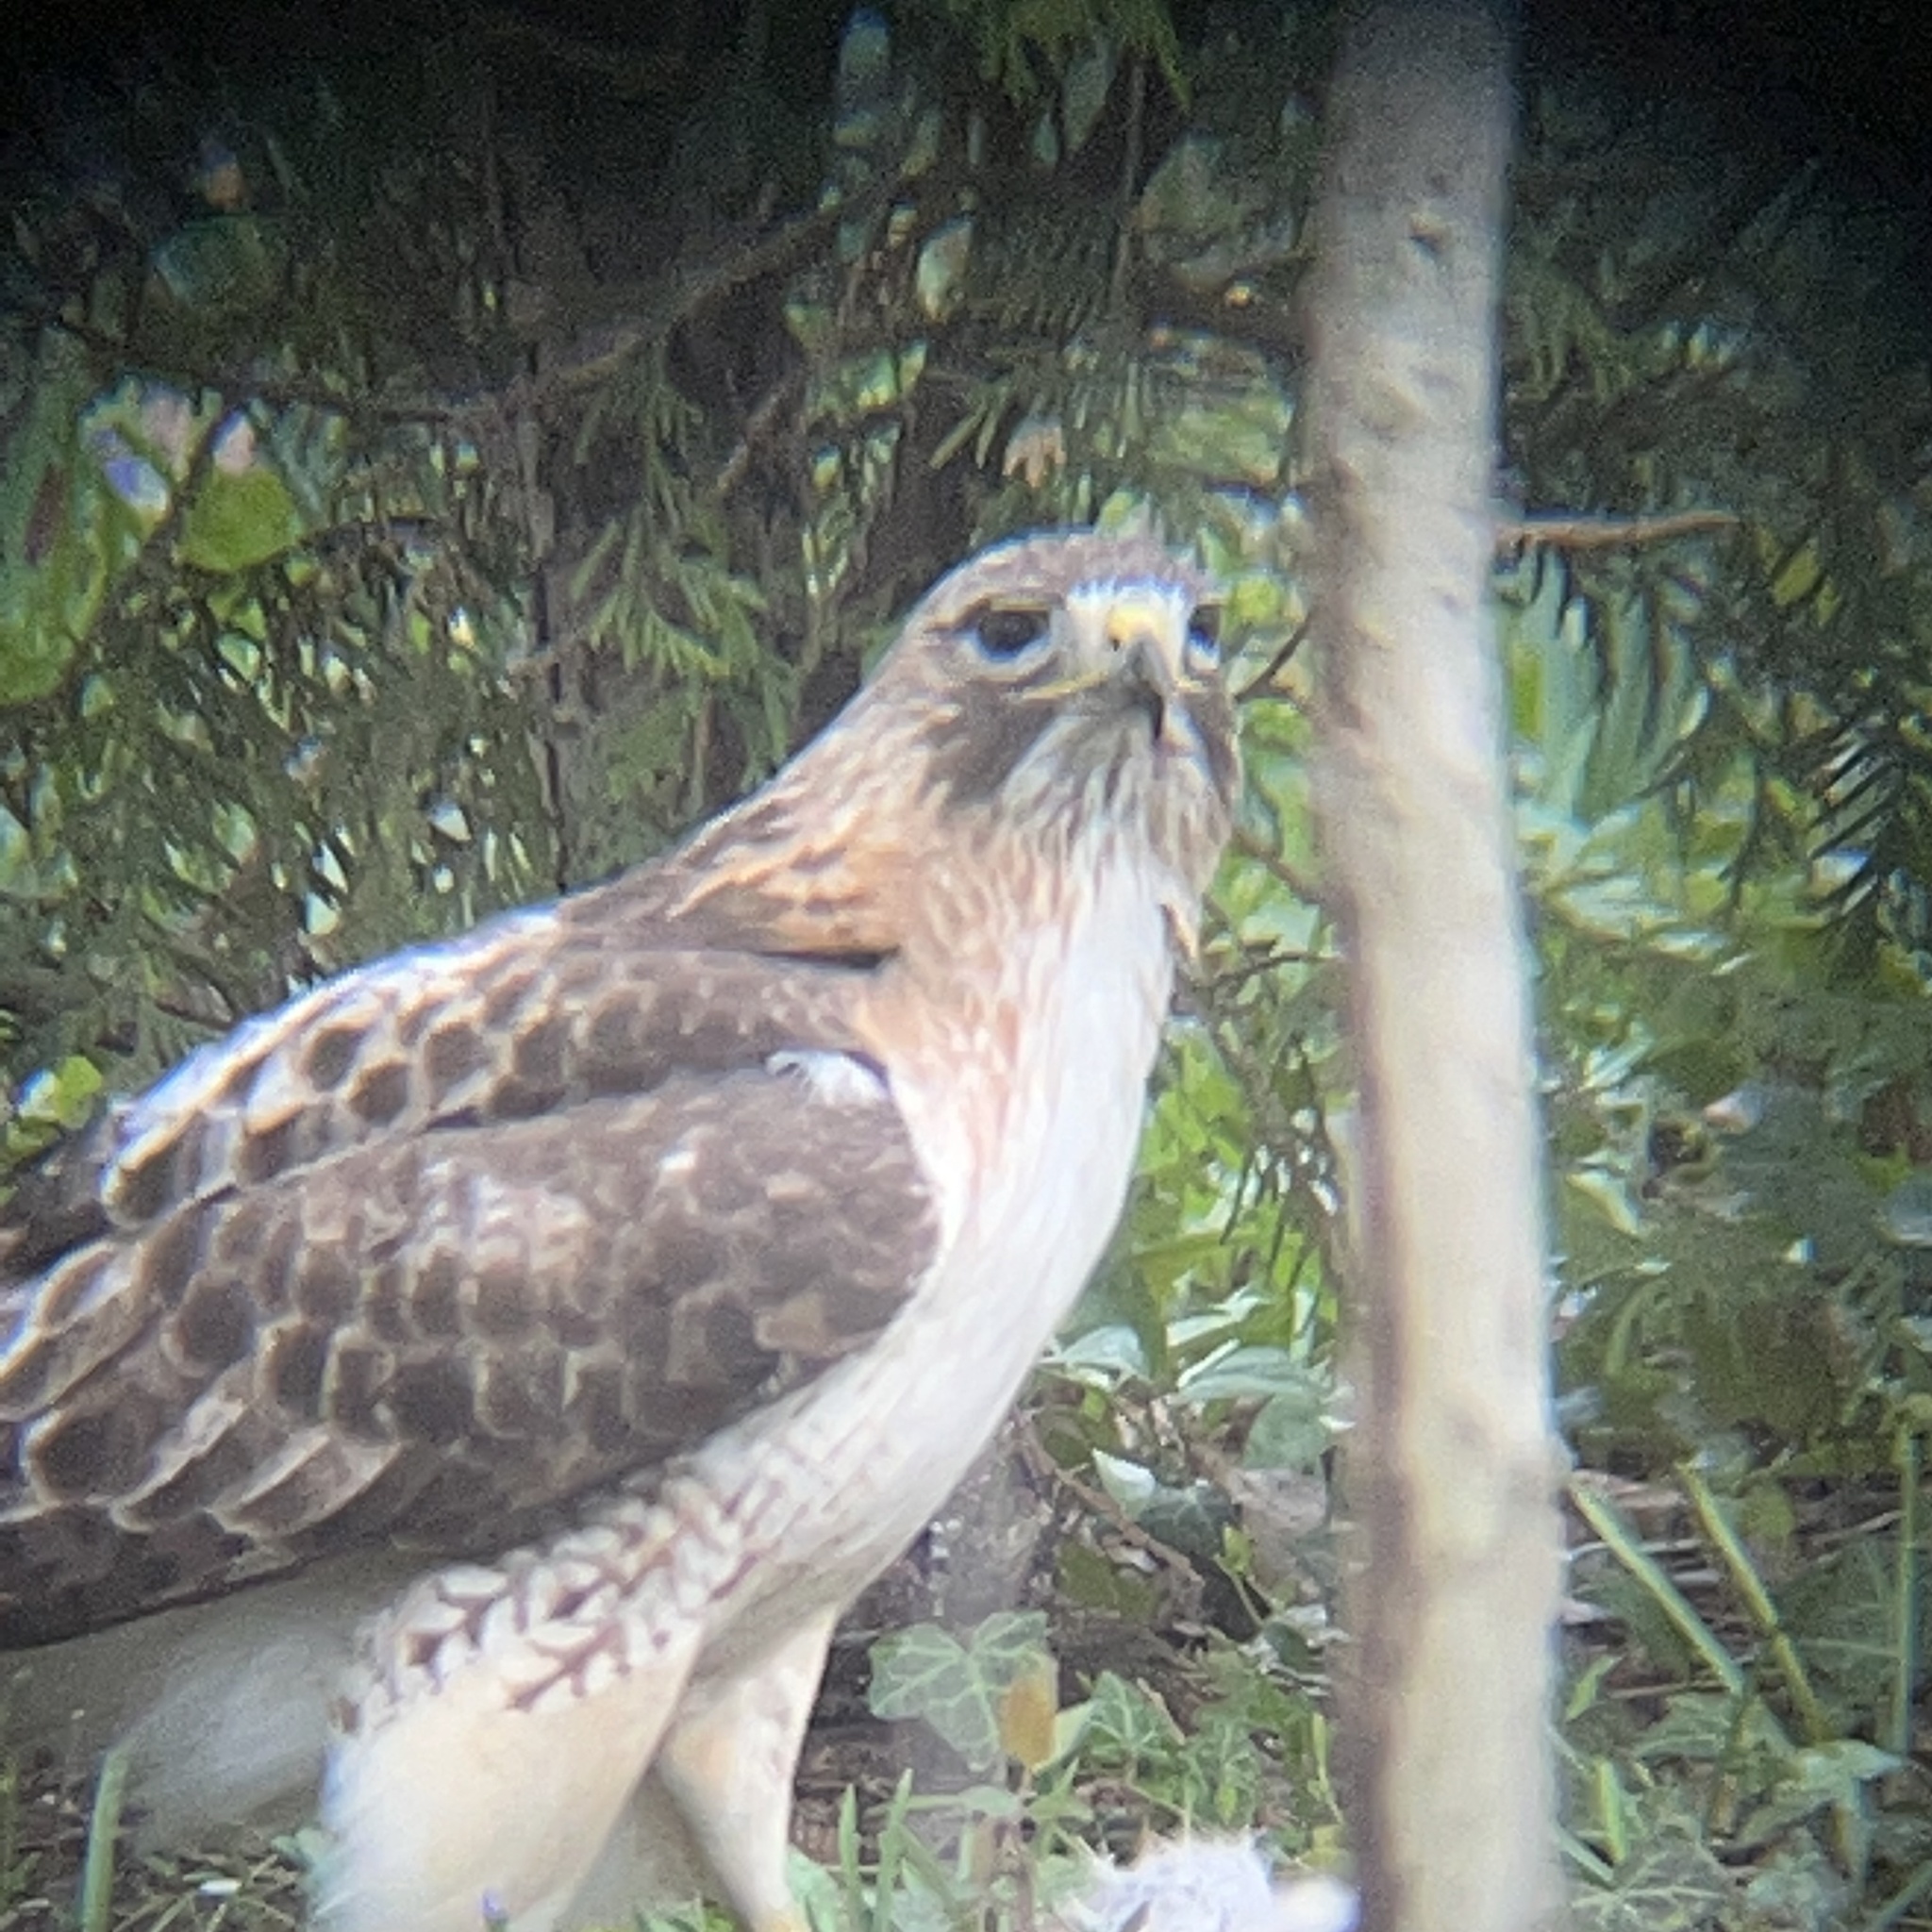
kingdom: Animalia
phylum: Chordata
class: Aves
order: Accipitriformes
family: Accipitridae
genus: Buteo
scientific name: Buteo jamaicensis
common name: Red-tailed hawk
